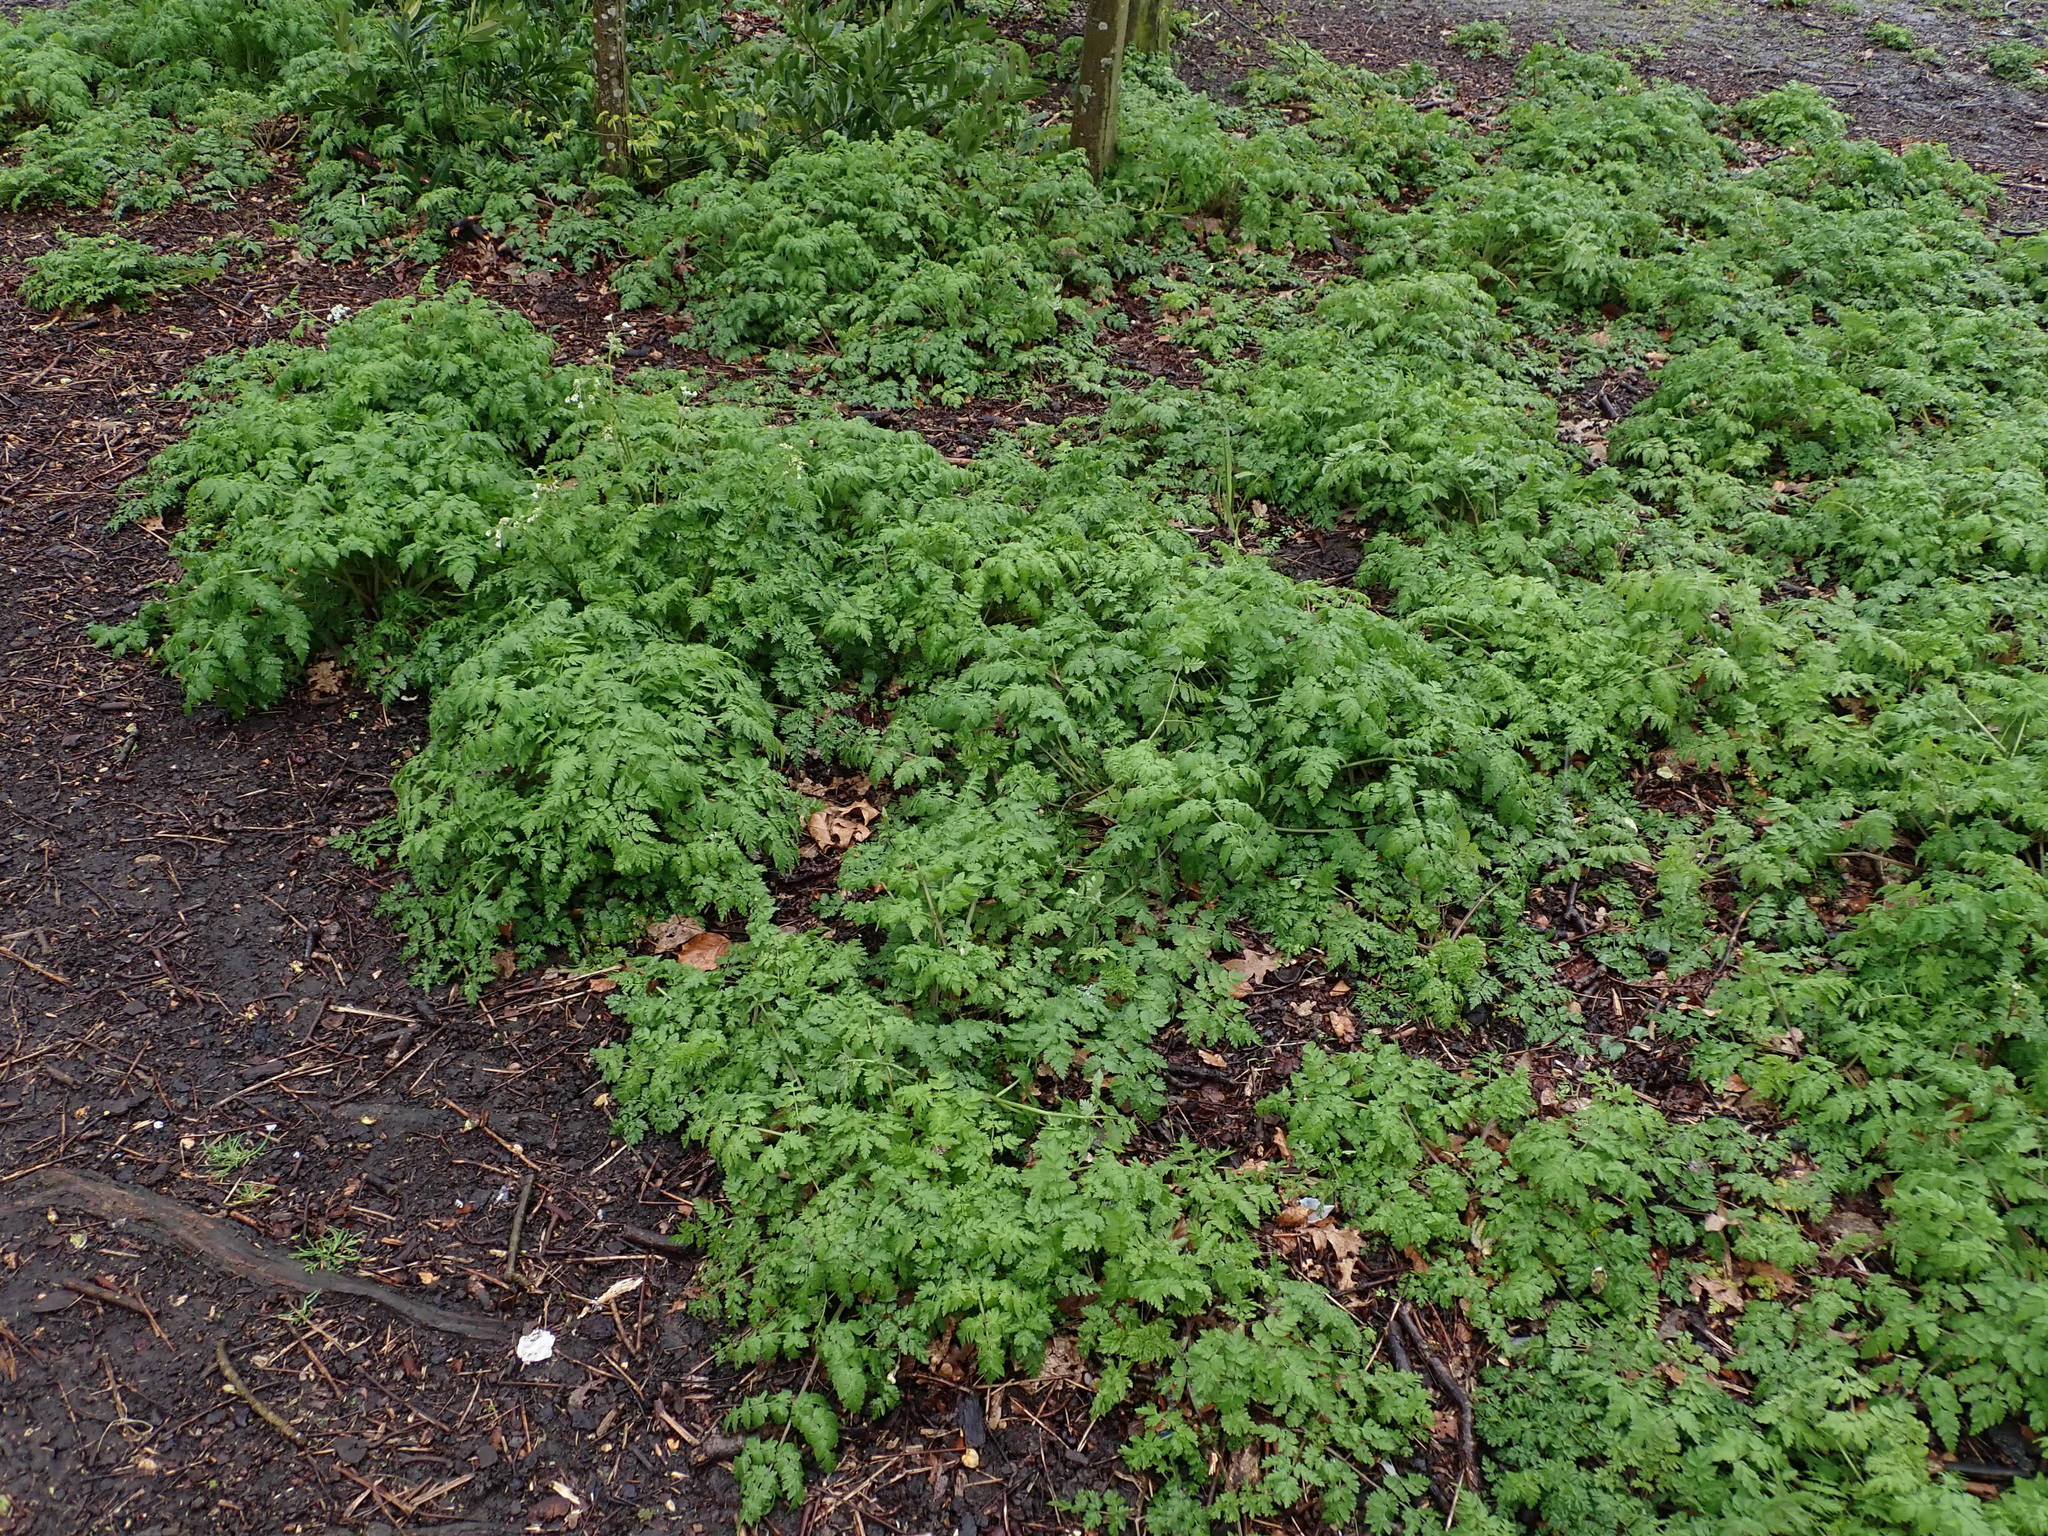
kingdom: Plantae
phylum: Tracheophyta
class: Magnoliopsida
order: Apiales
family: Apiaceae
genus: Anthriscus
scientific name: Anthriscus sylvestris
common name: Cow parsley
